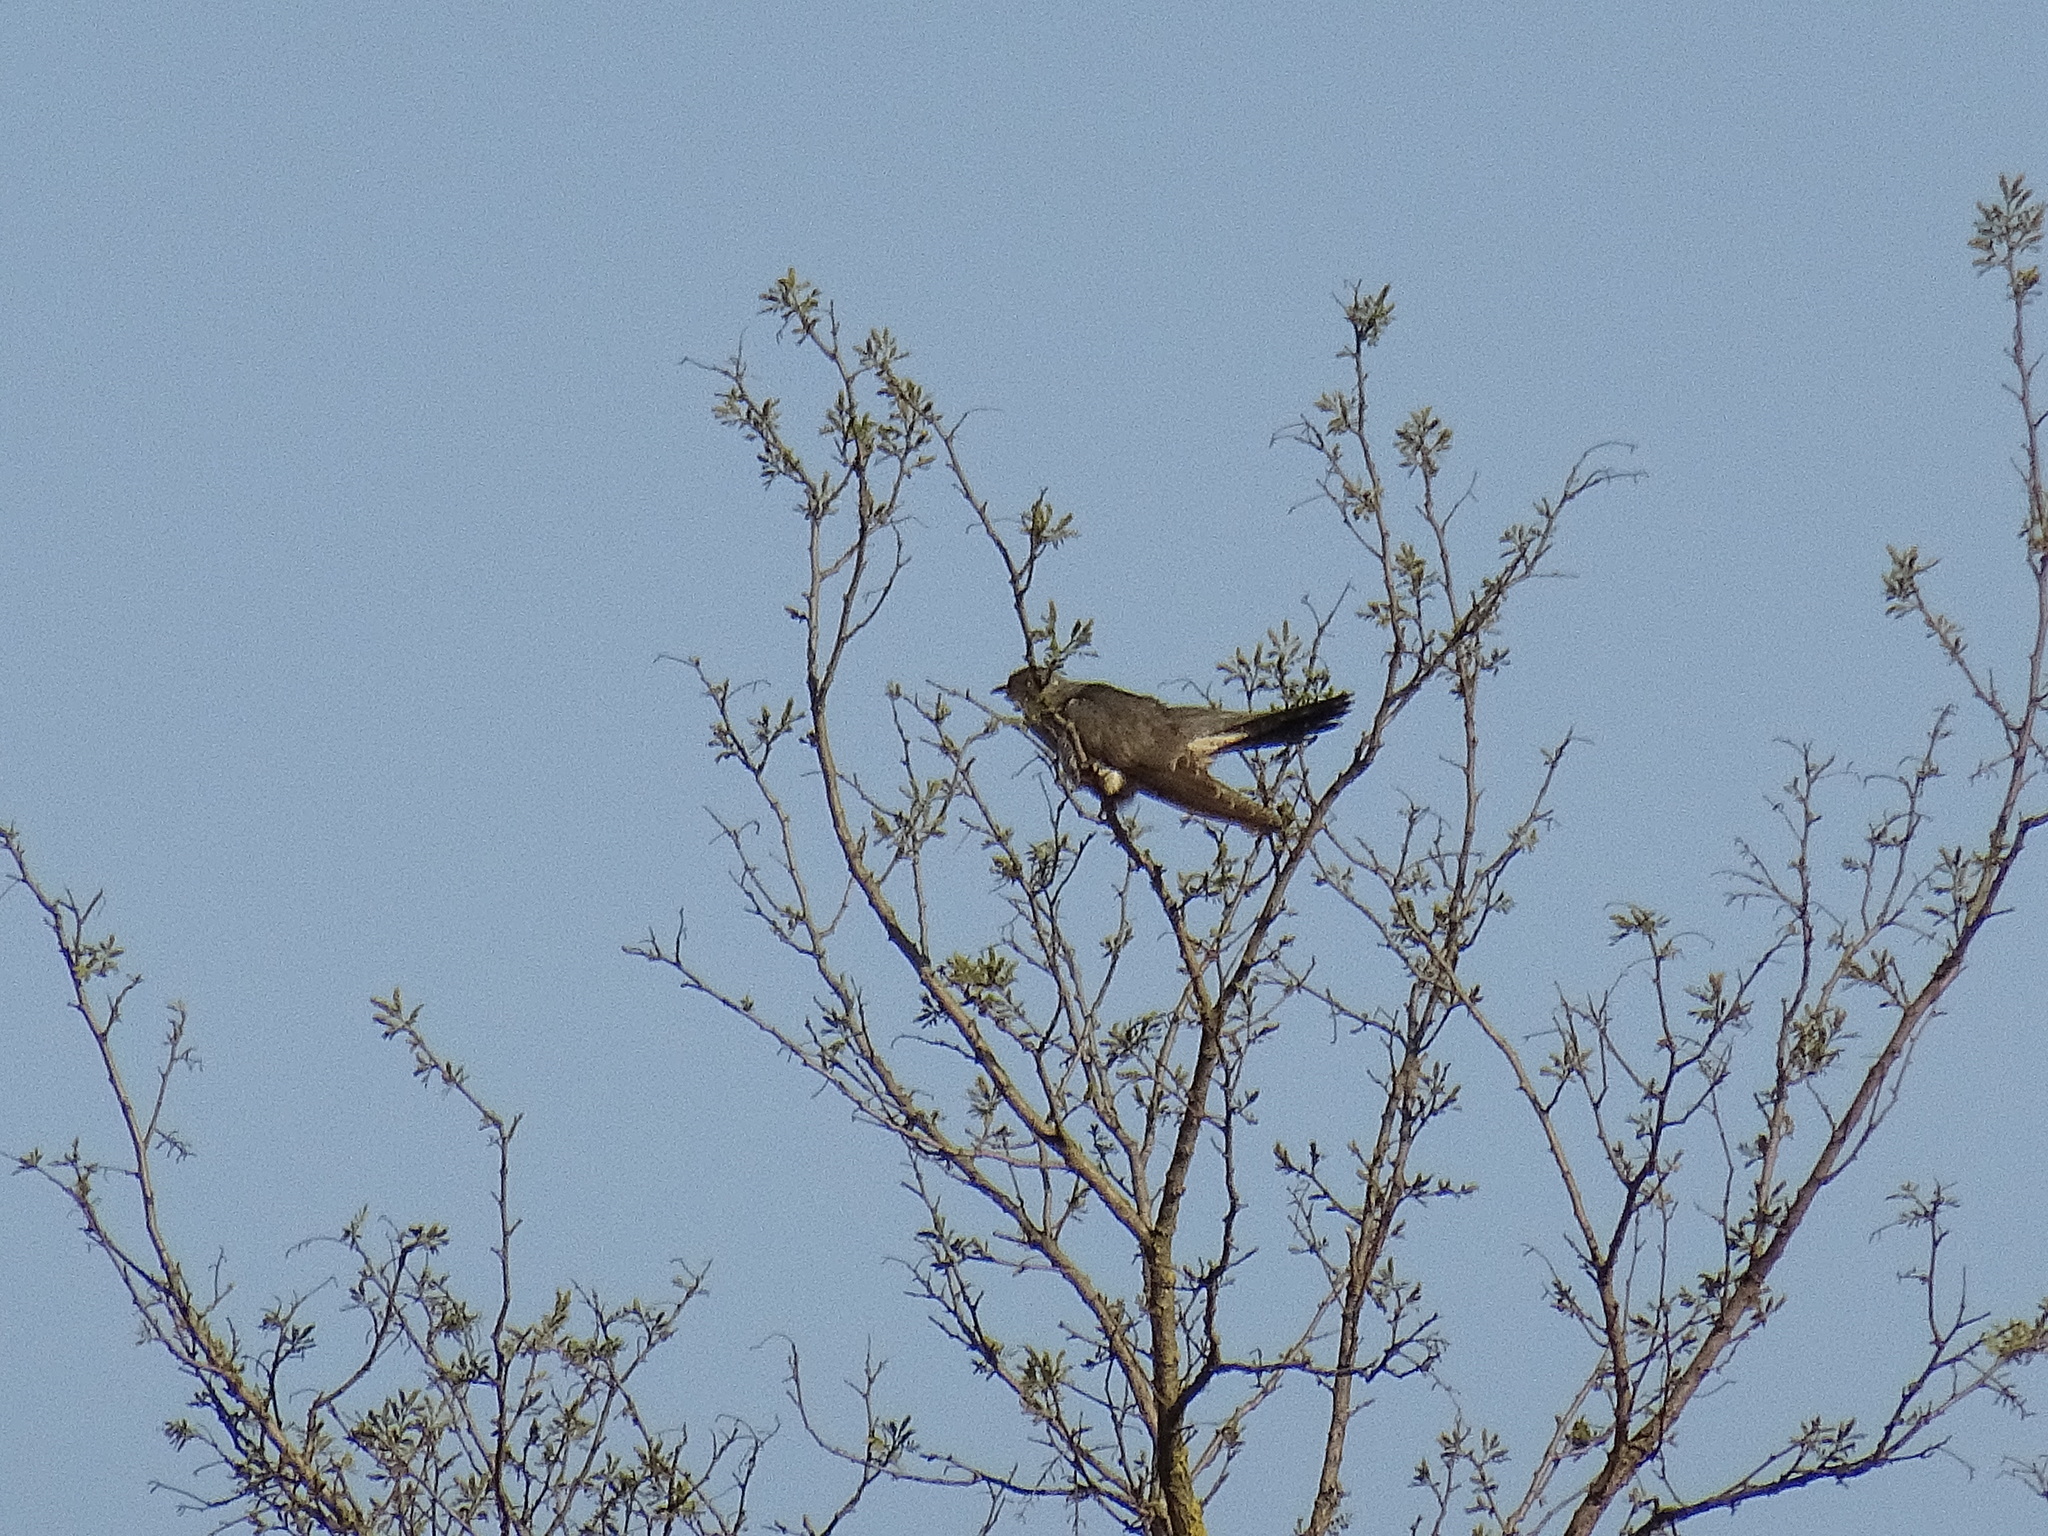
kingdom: Animalia
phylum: Chordata
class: Aves
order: Cuculiformes
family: Cuculidae
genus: Cuculus
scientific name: Cuculus canorus
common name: Common cuckoo
